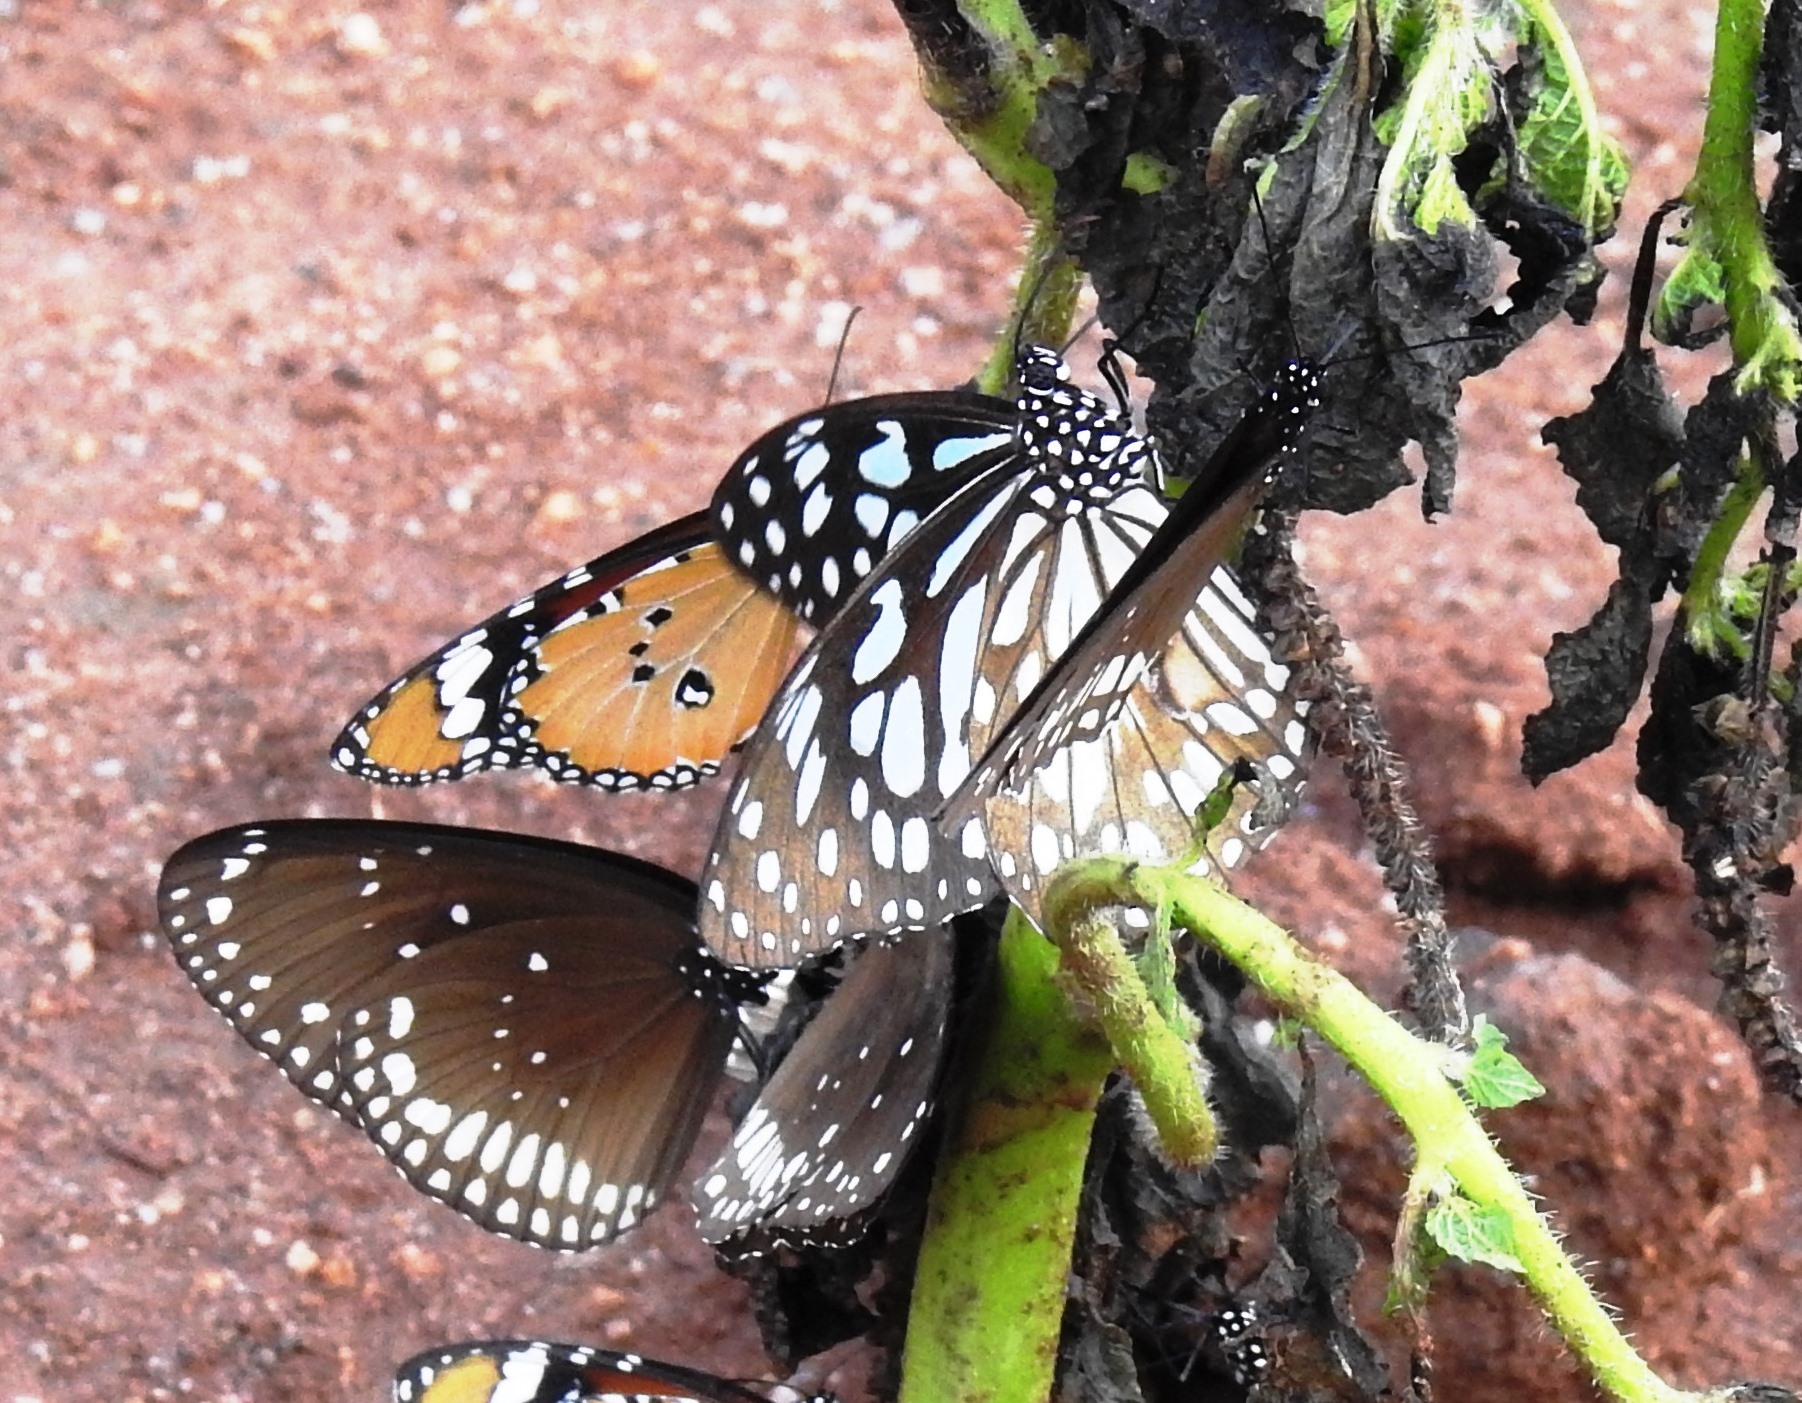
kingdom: Animalia
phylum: Arthropoda
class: Insecta
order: Lepidoptera
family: Nymphalidae
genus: Tirumala
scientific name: Tirumala limniace
